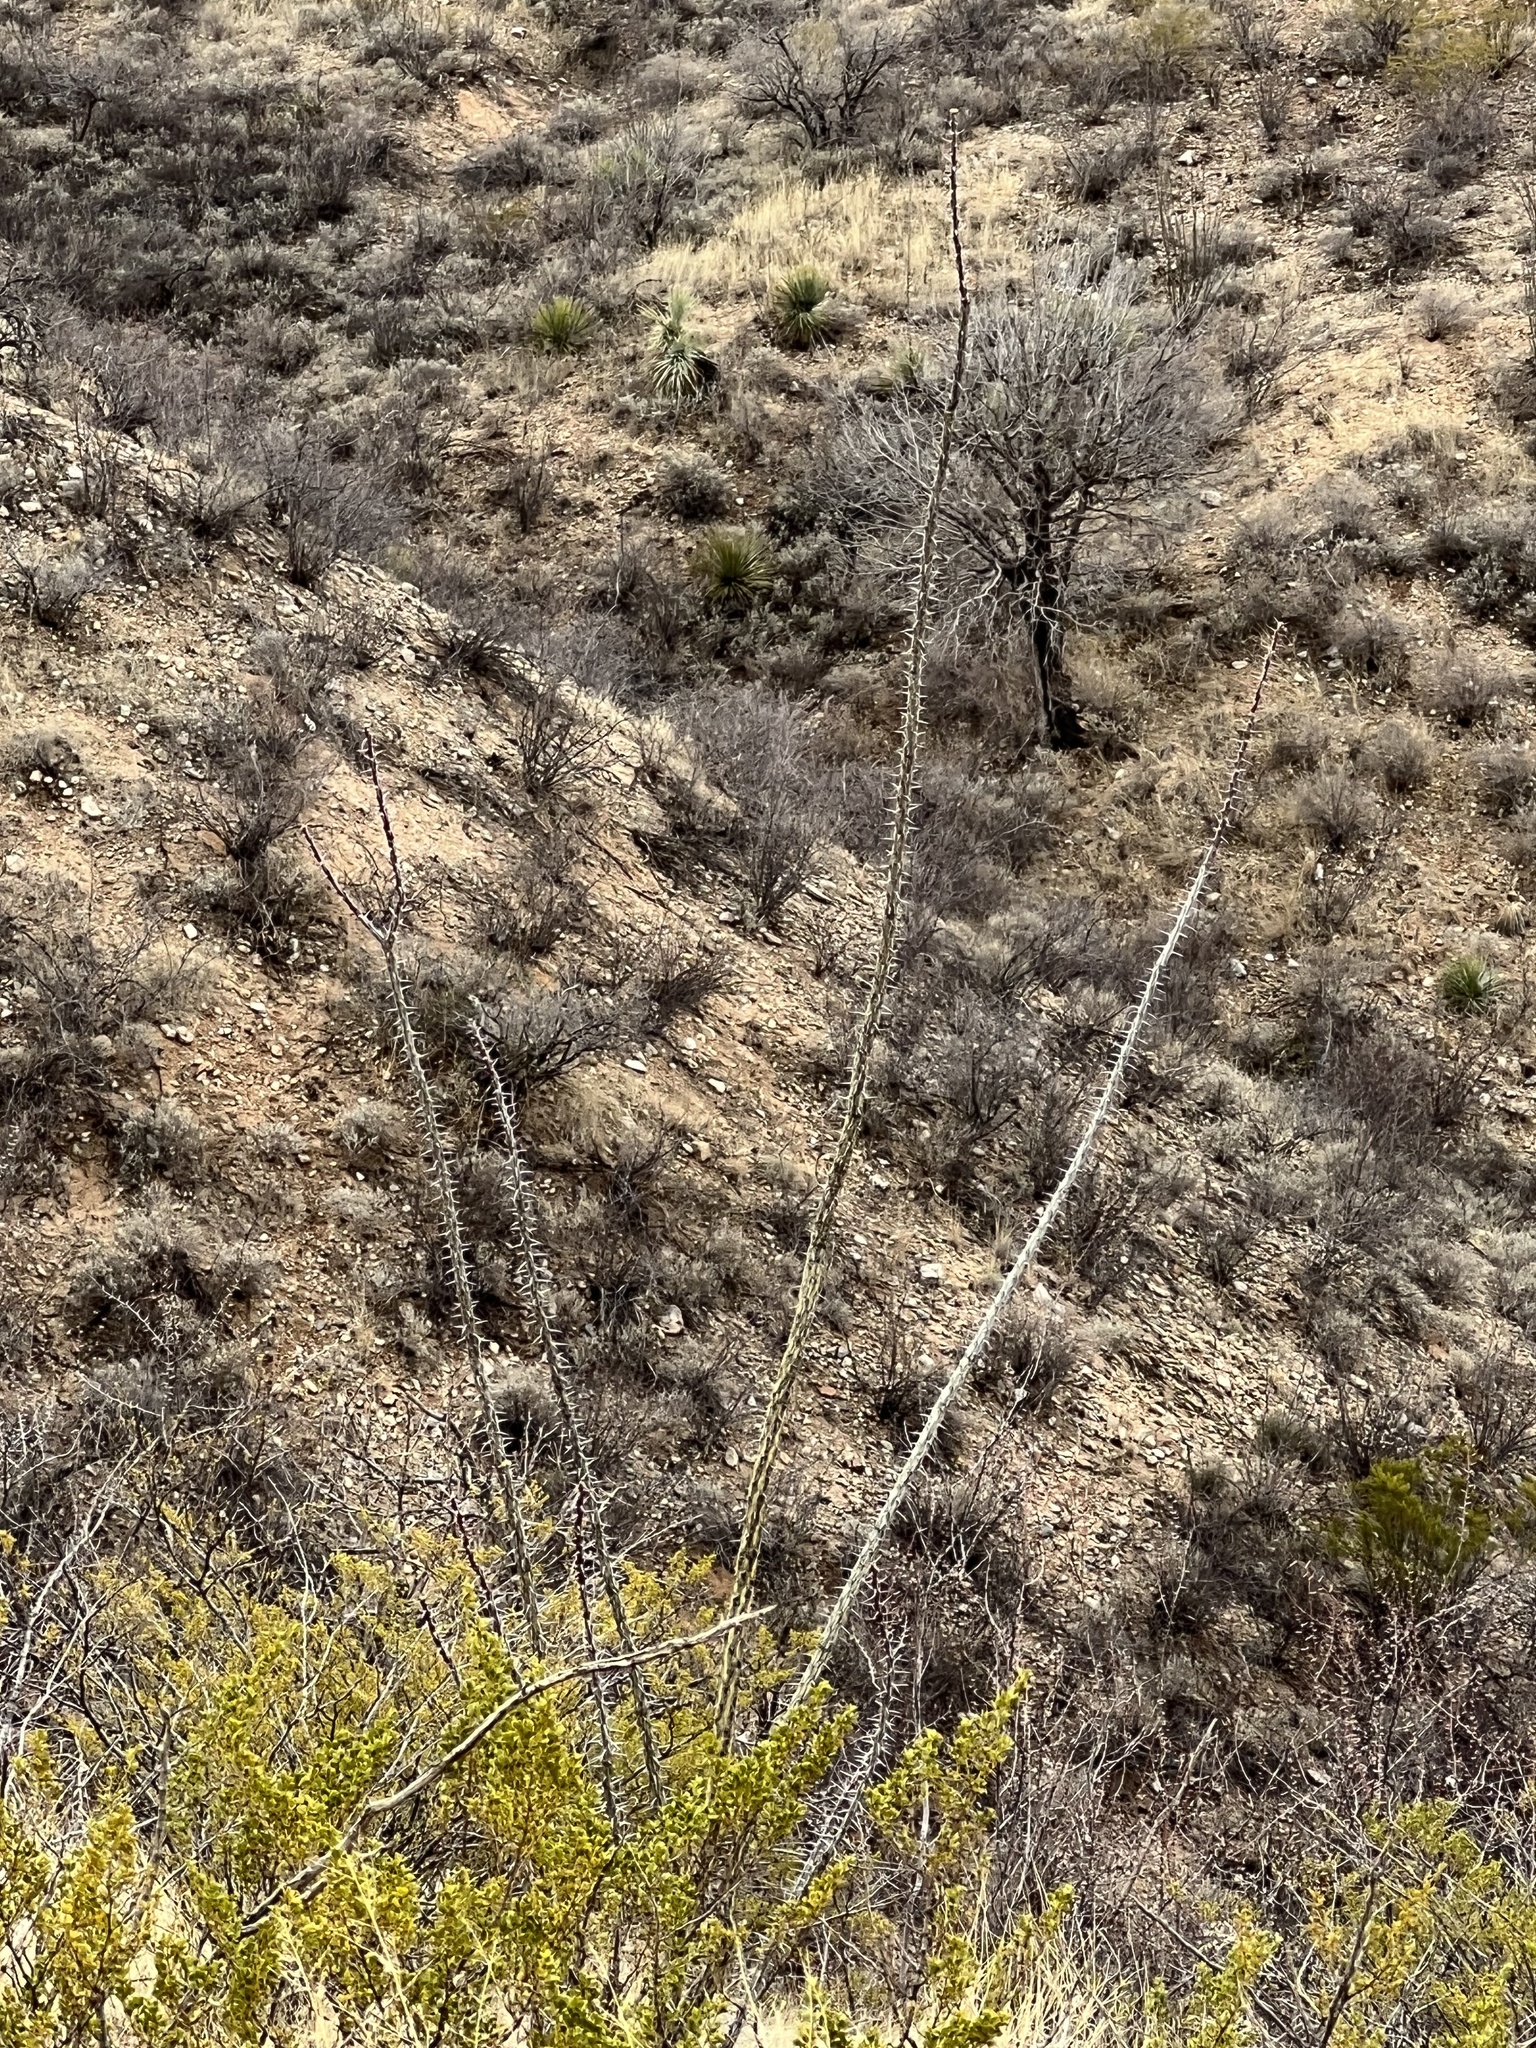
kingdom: Plantae
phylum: Tracheophyta
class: Magnoliopsida
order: Ericales
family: Fouquieriaceae
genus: Fouquieria
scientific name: Fouquieria splendens
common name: Vine-cactus
